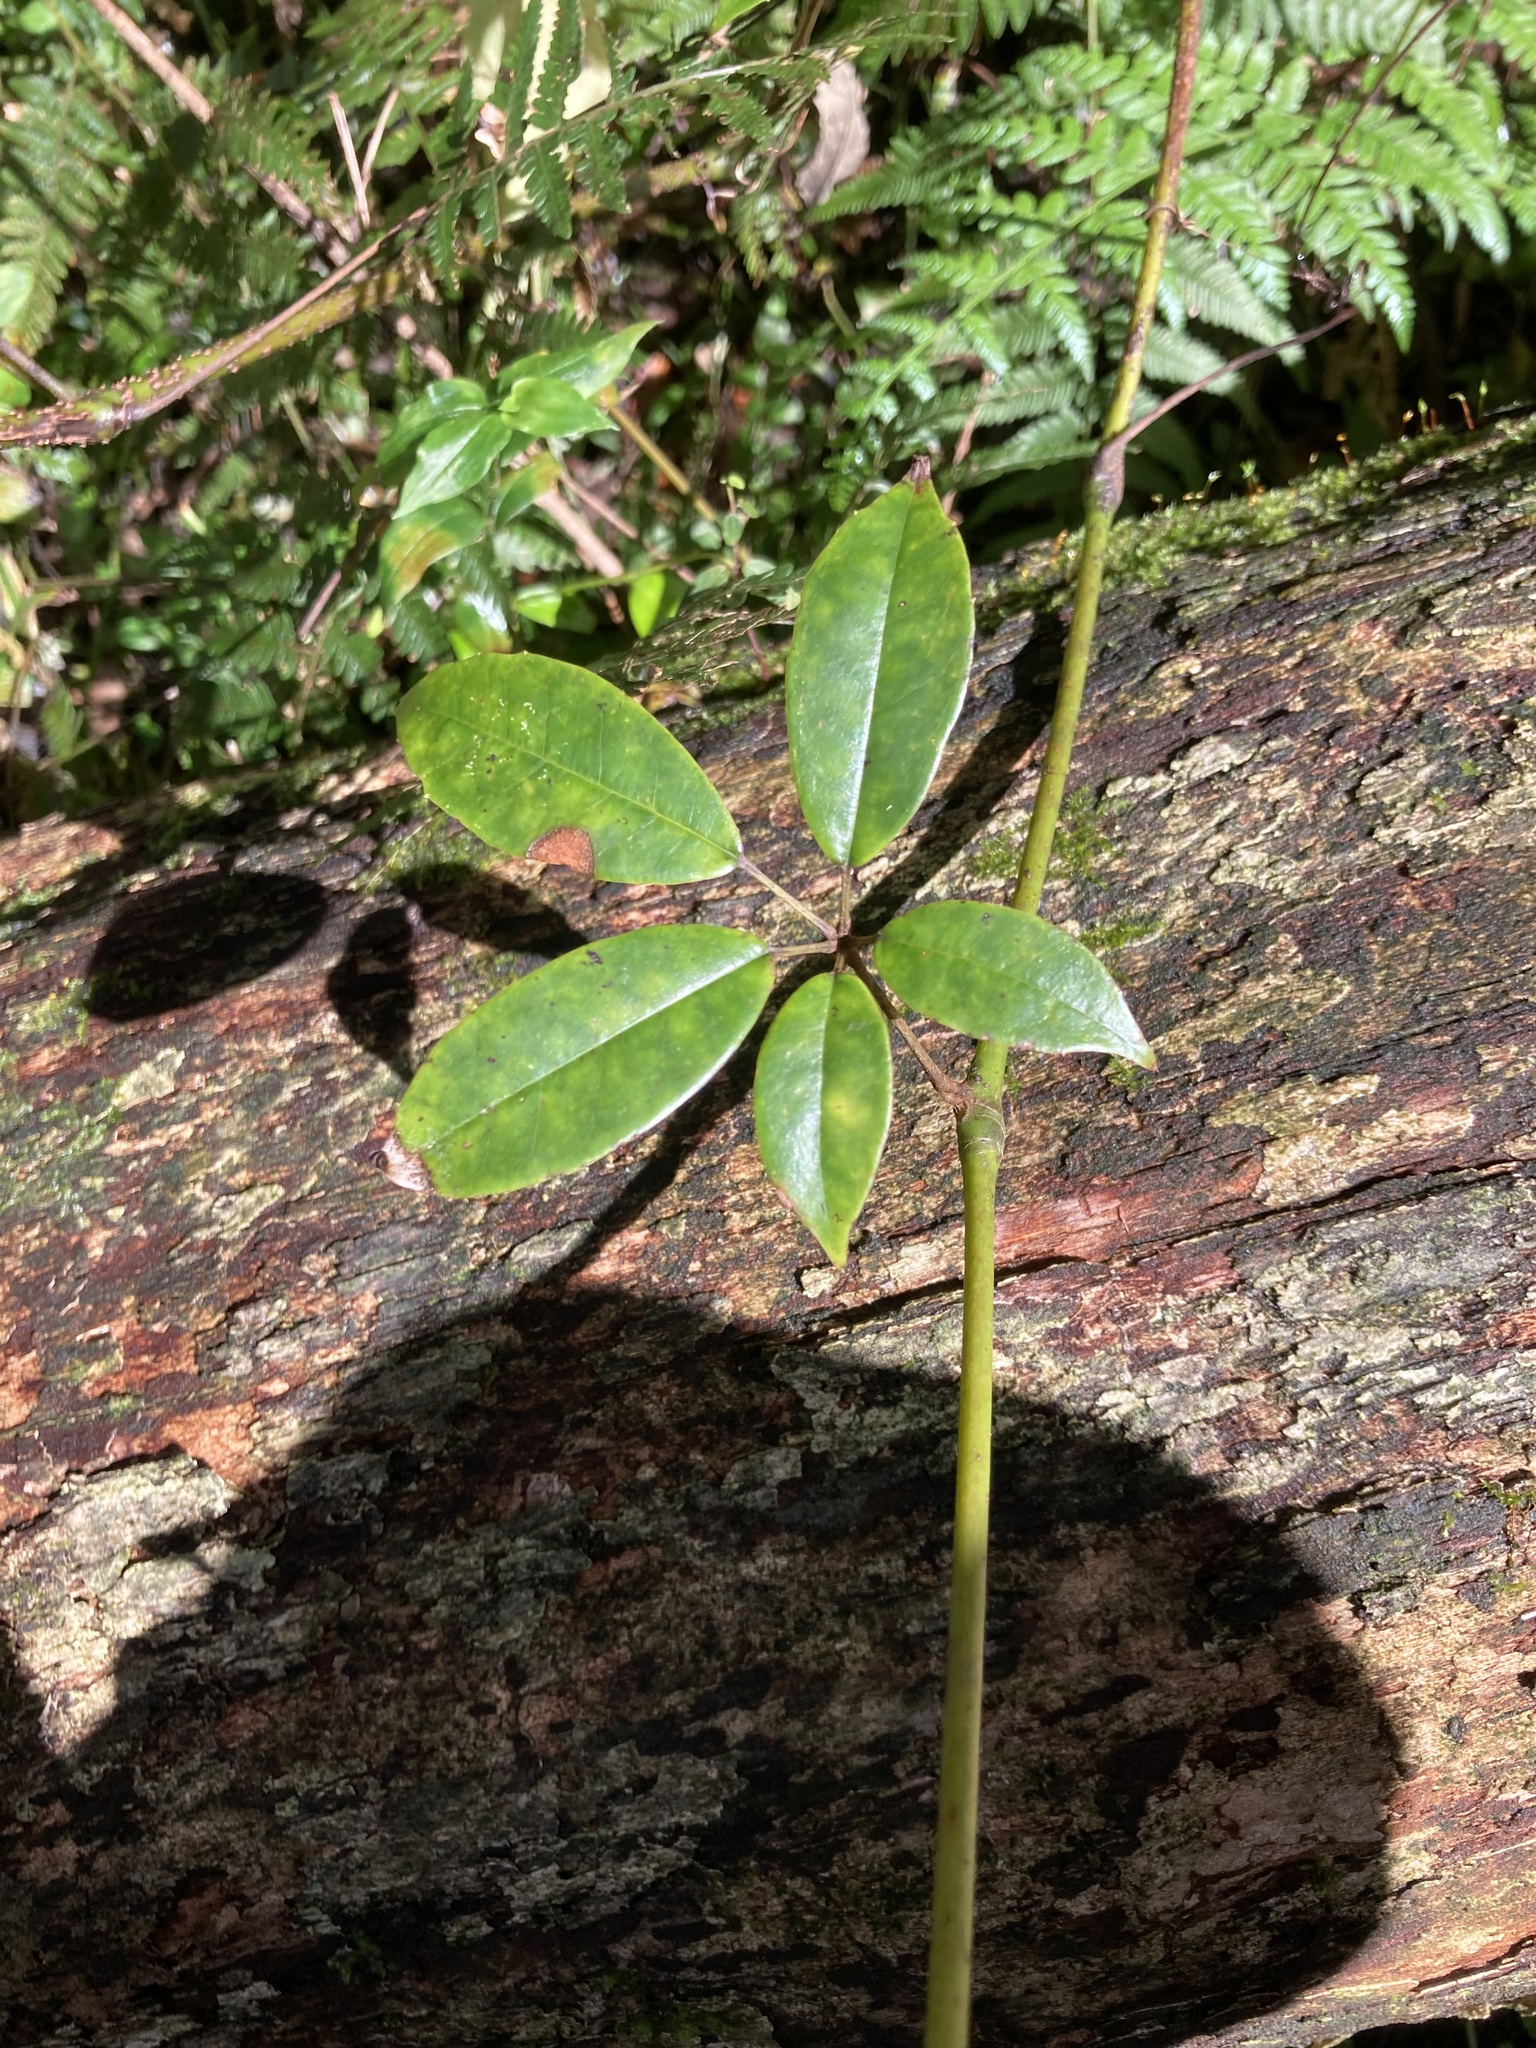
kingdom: Plantae
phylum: Tracheophyta
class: Magnoliopsida
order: Vitales
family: Vitaceae
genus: Nothocissus
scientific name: Nothocissus hypoglauca
